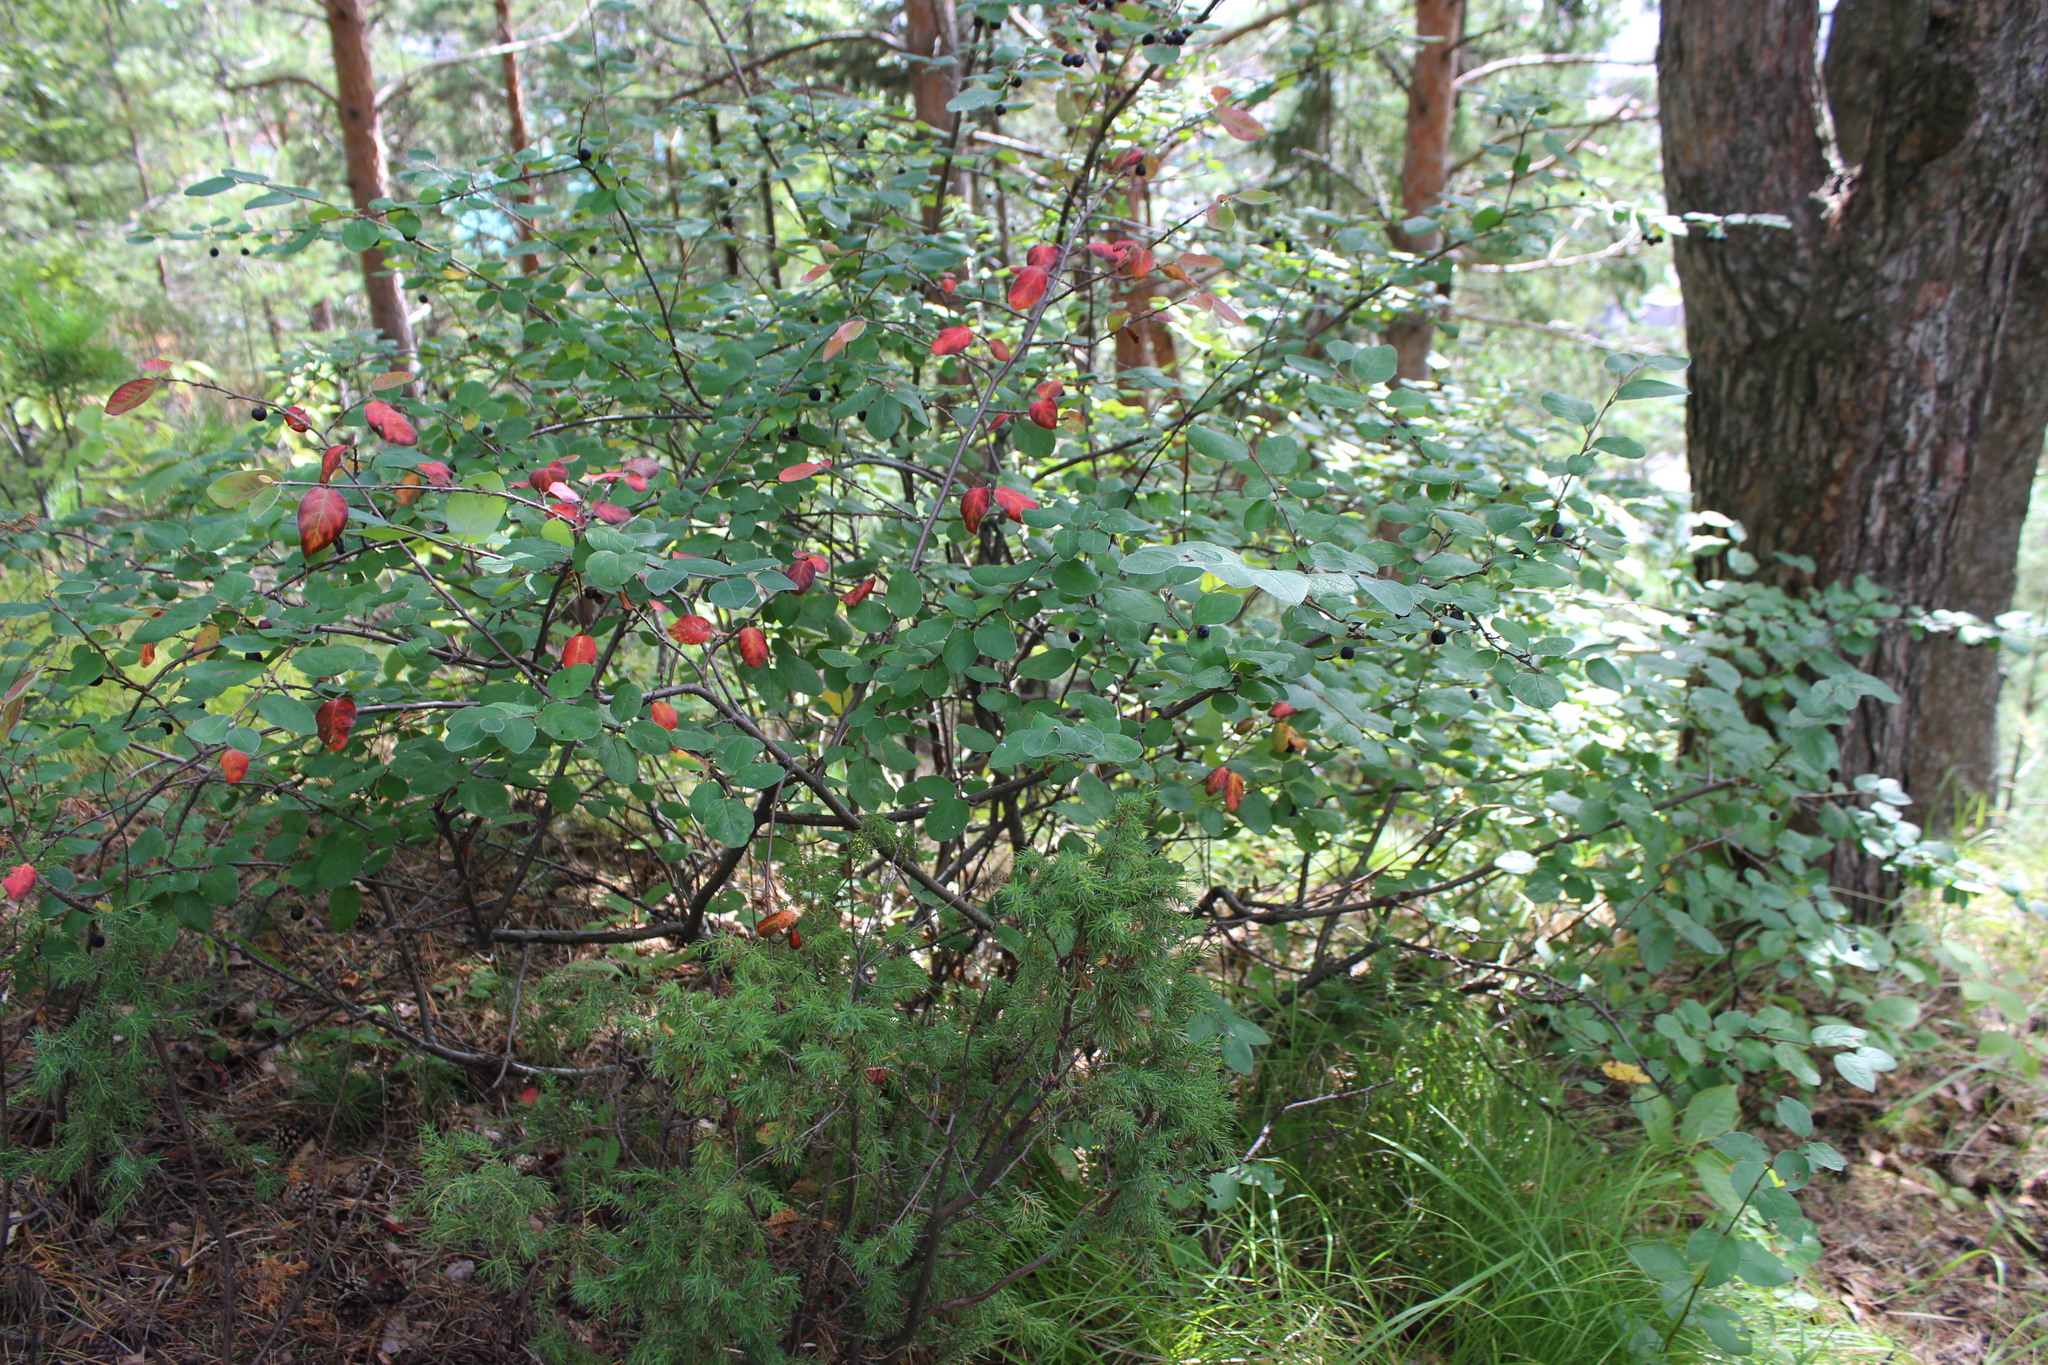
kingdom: Plantae
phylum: Tracheophyta
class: Magnoliopsida
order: Rosales
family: Rosaceae
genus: Cotoneaster
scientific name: Cotoneaster melanocarpus
